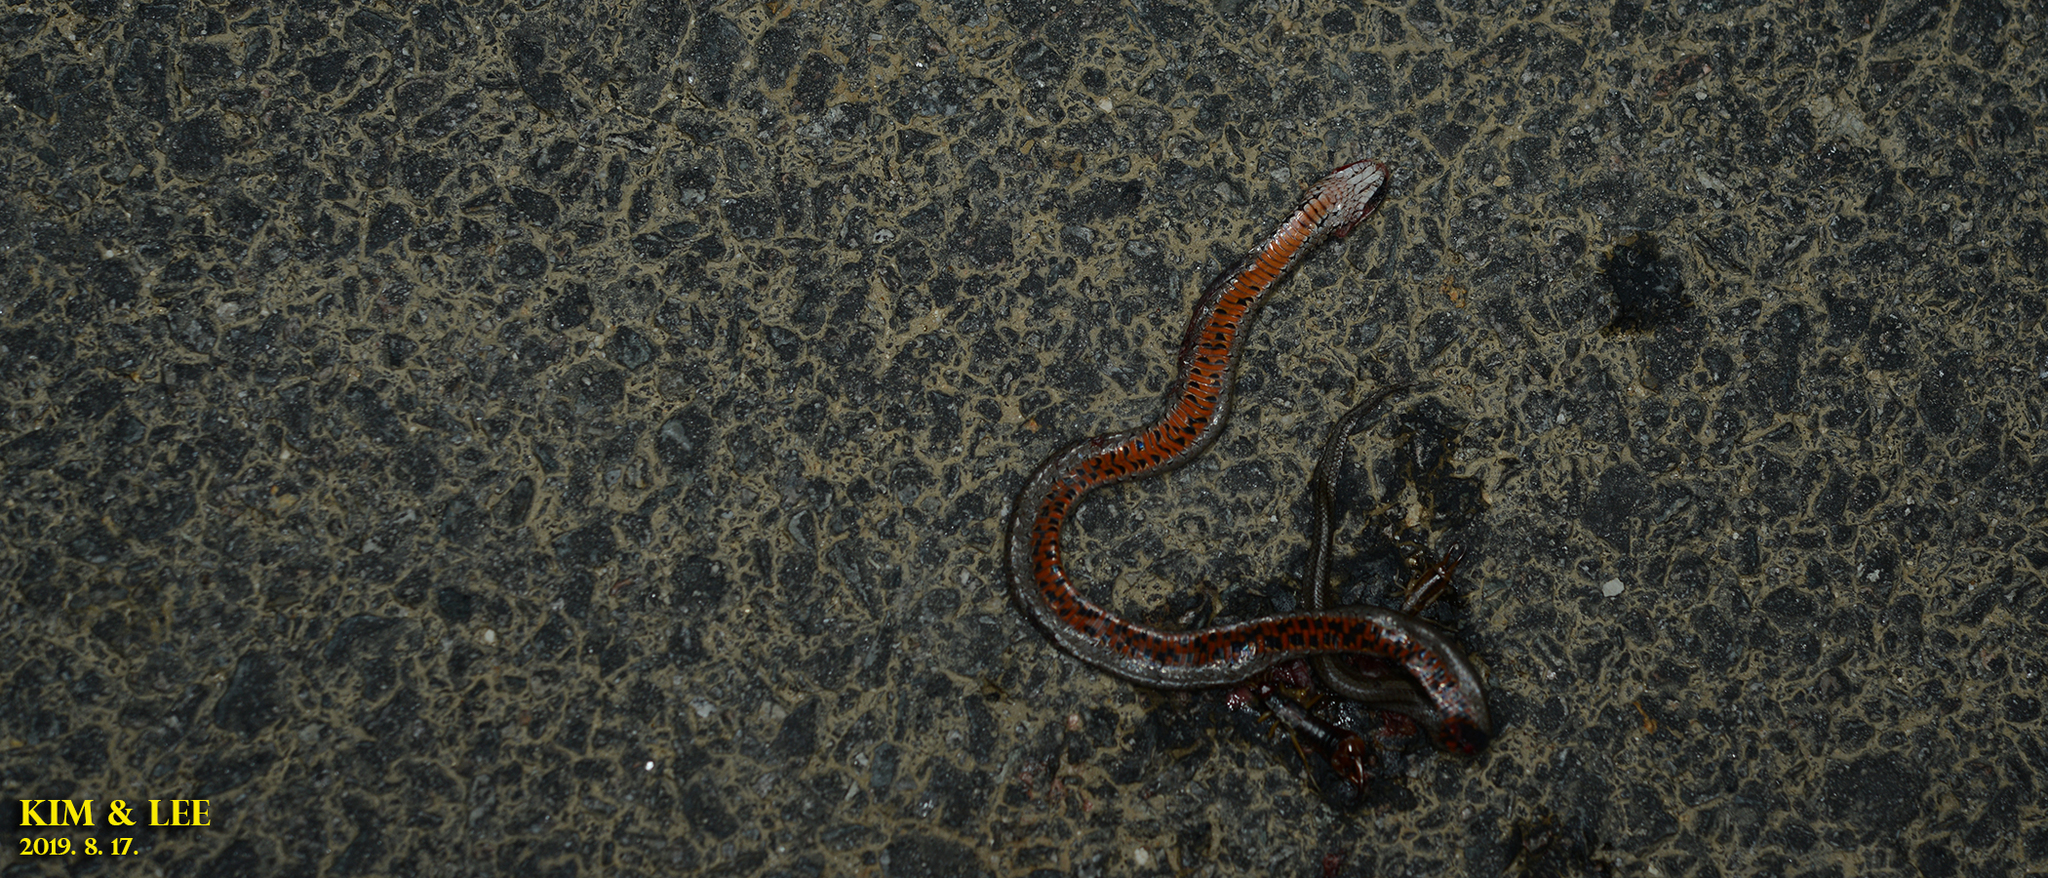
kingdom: Animalia
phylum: Chordata
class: Squamata
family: Colubridae
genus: Oocatochus
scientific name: Oocatochus rufodorsatus
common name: Frog-eating rat snake
